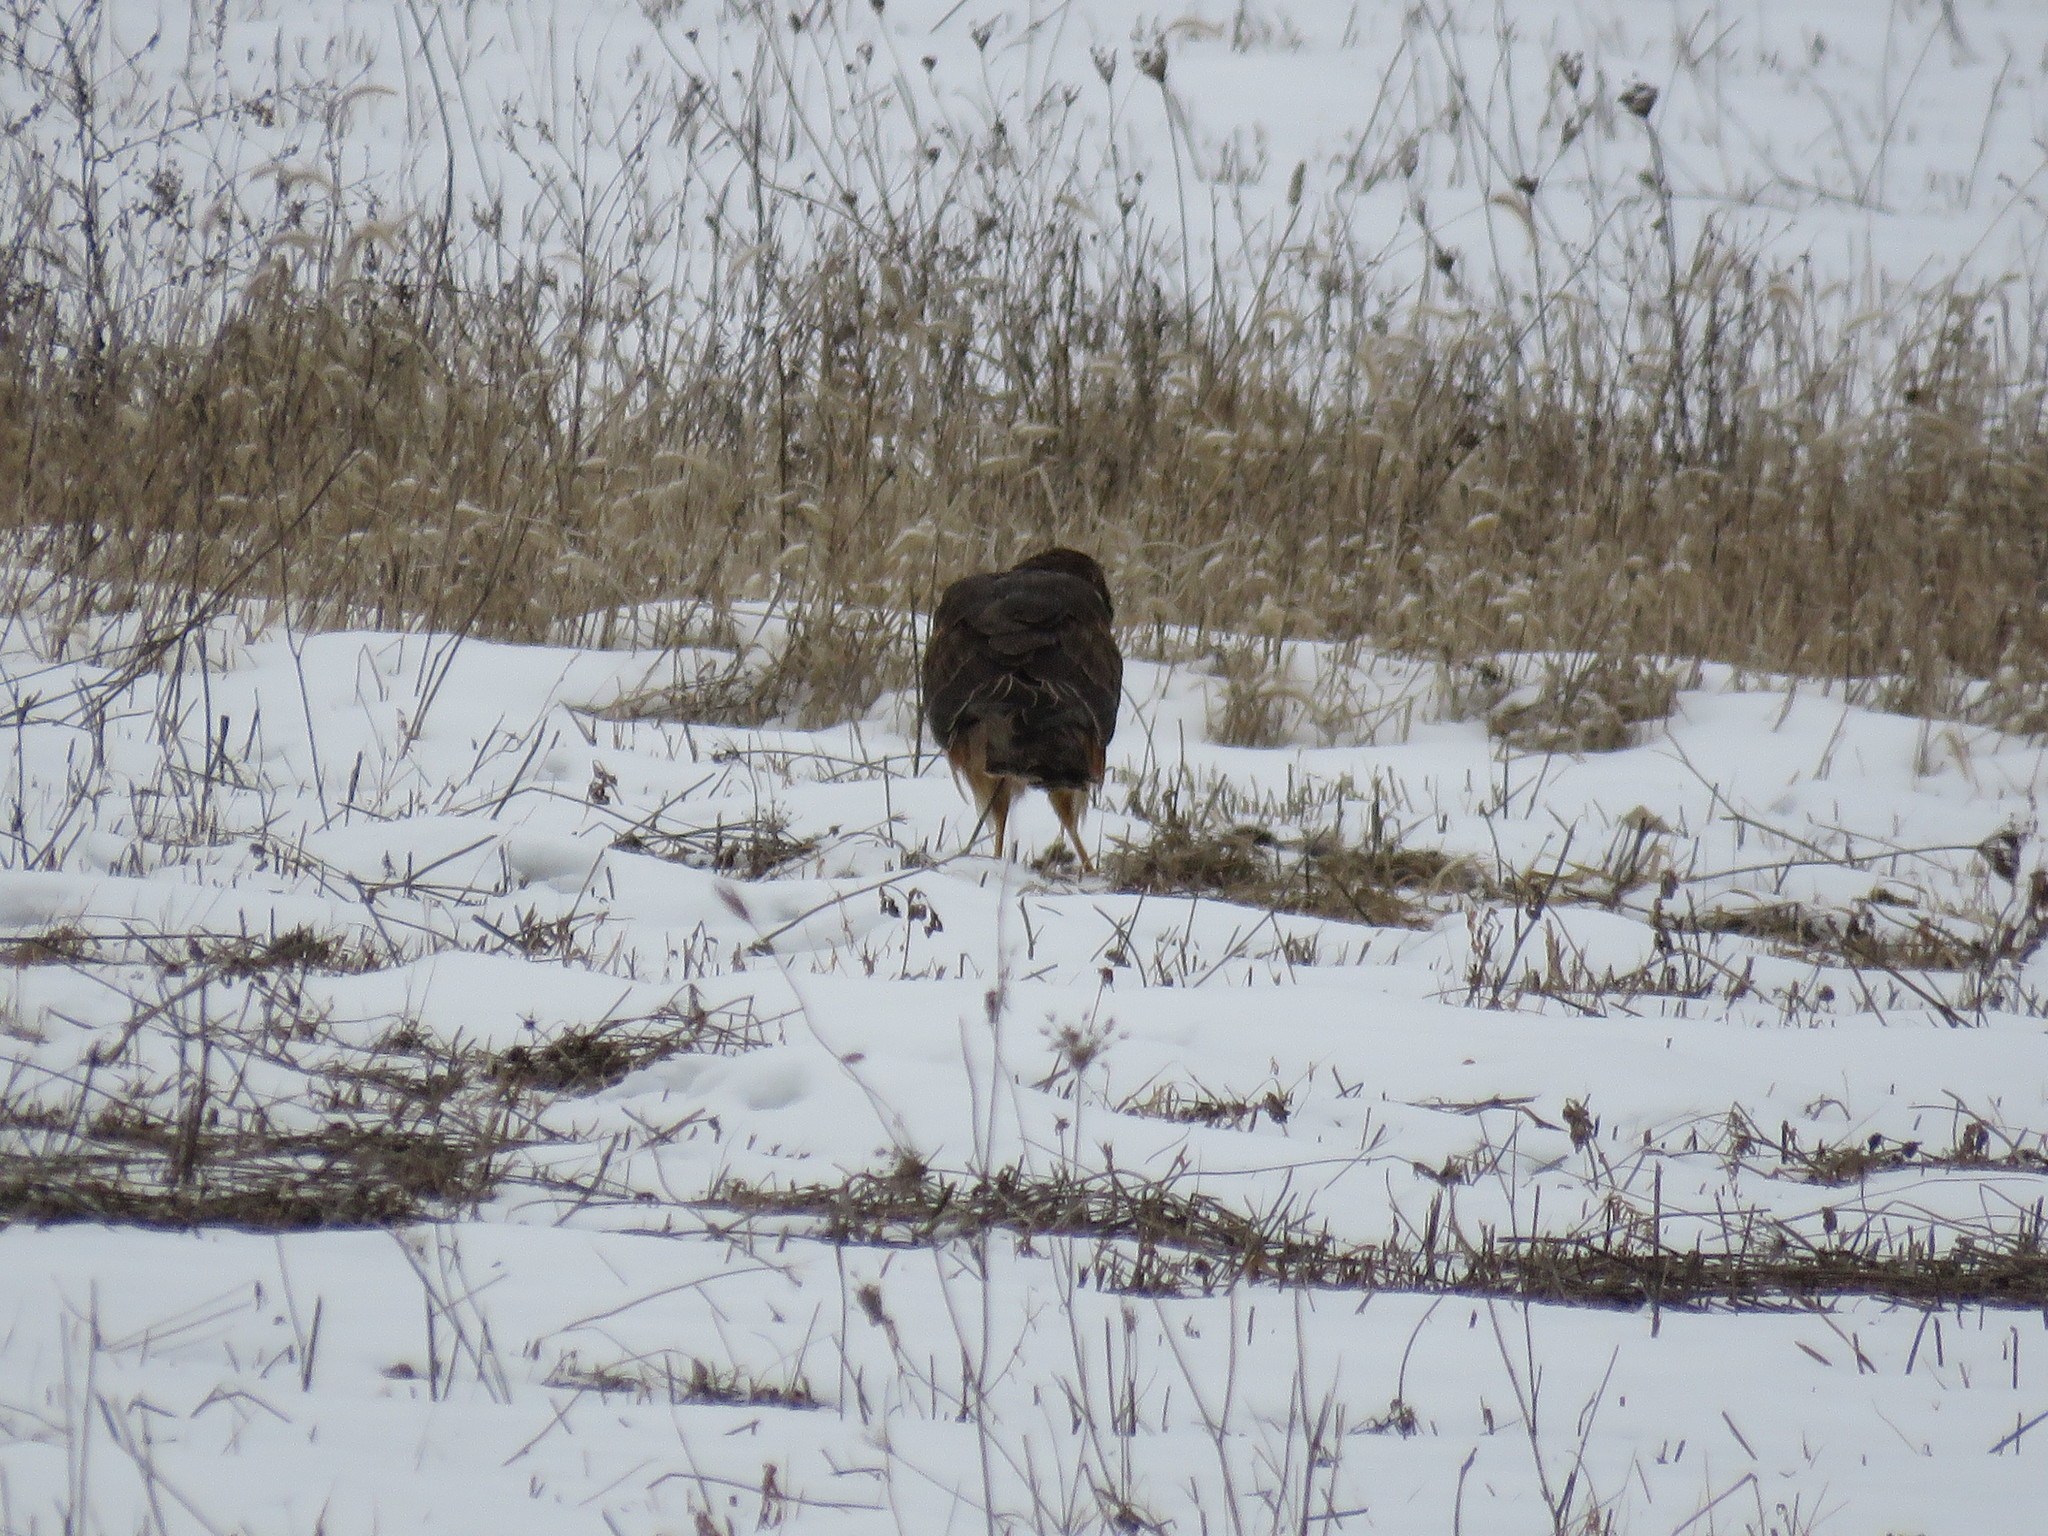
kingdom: Animalia
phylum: Chordata
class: Aves
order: Accipitriformes
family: Accipitridae
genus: Circus
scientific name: Circus cyaneus
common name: Hen harrier
